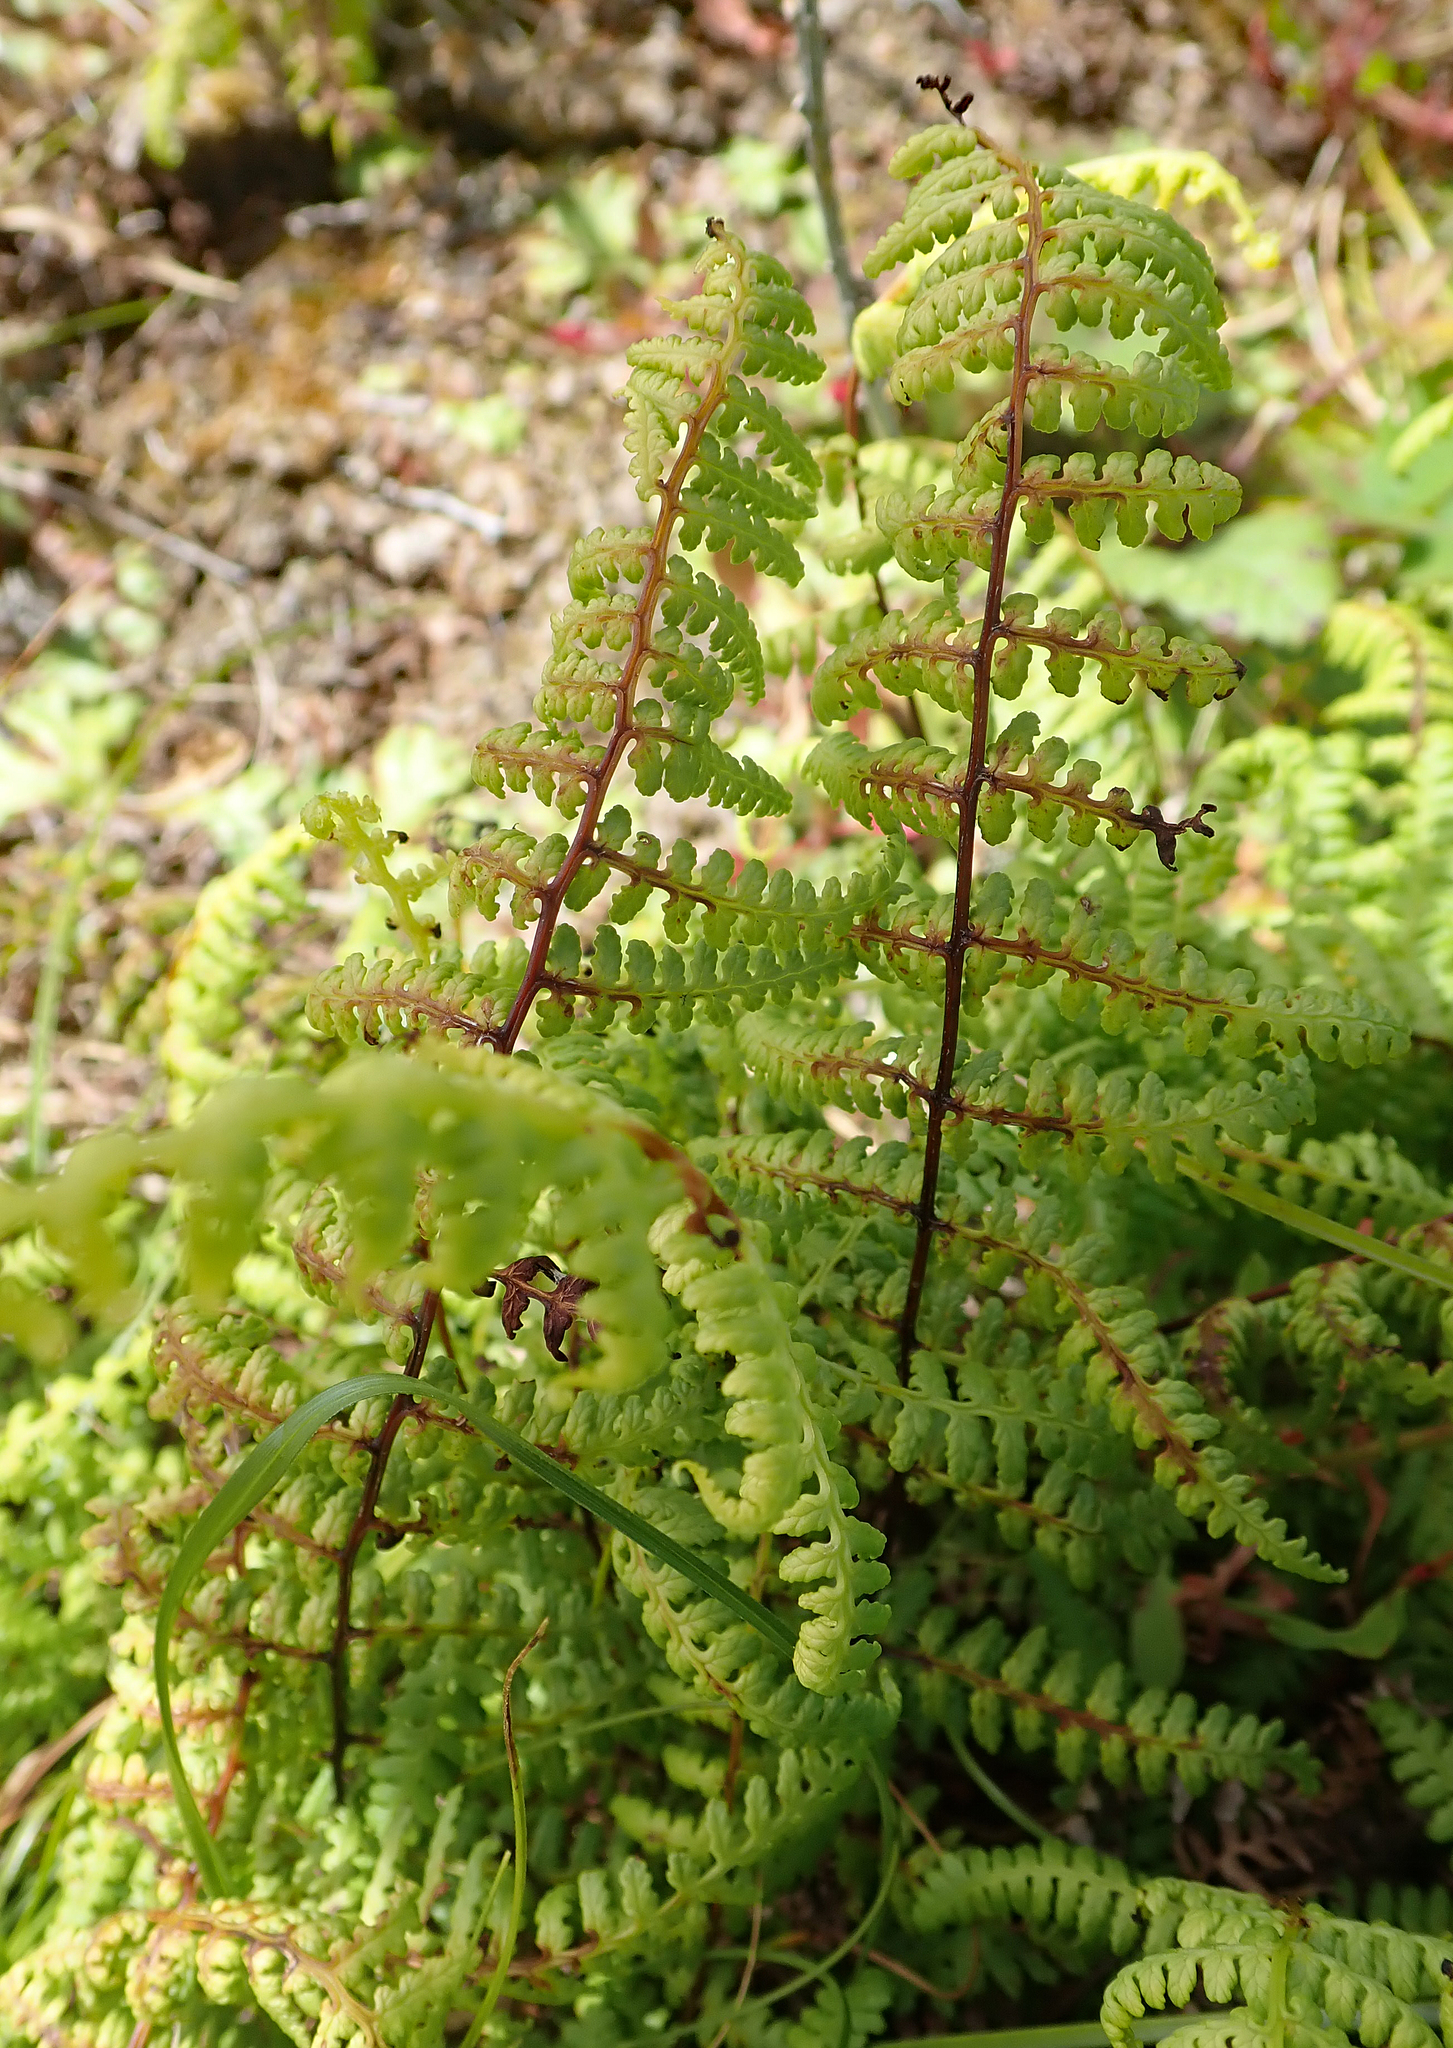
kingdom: Plantae
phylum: Tracheophyta
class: Polypodiopsida
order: Polypodiales
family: Dennstaedtiaceae
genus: Hiya
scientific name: Hiya distans
